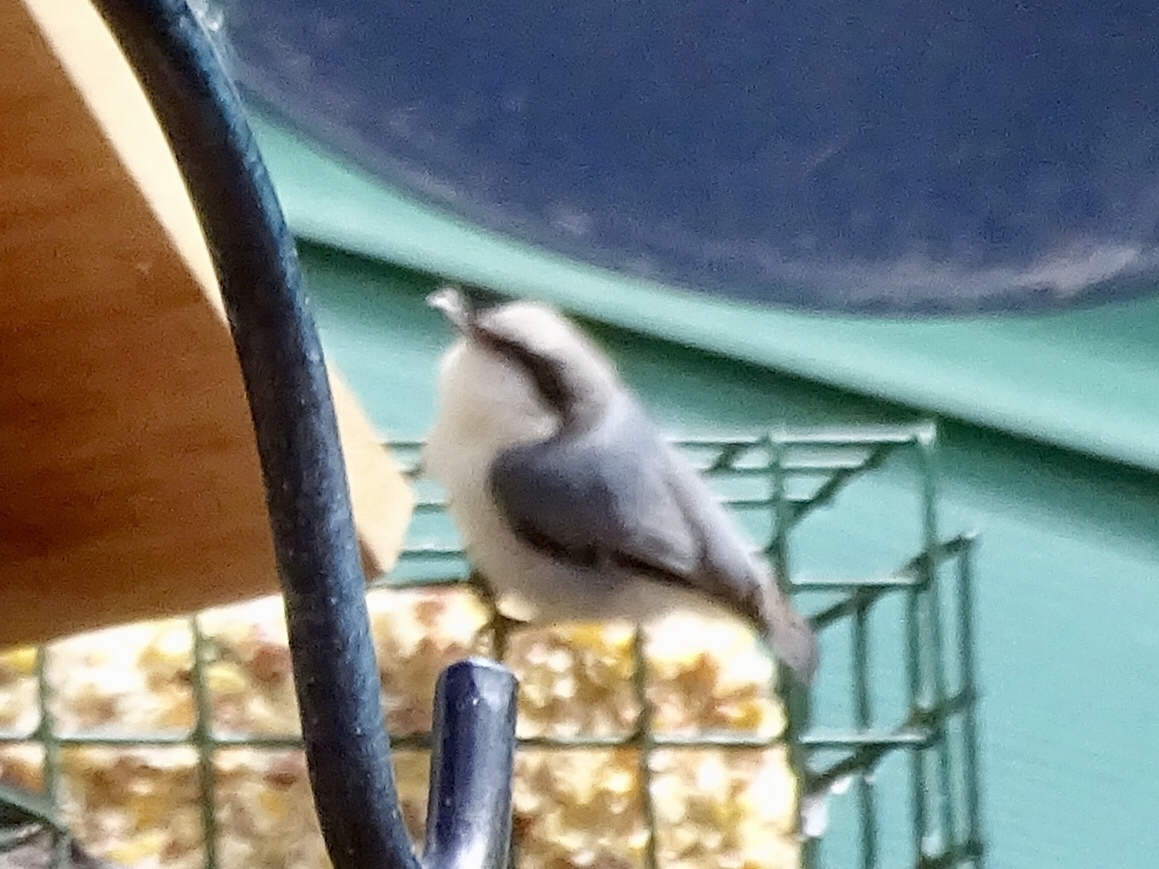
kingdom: Animalia
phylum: Chordata
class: Aves
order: Passeriformes
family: Sittidae
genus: Sitta
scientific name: Sitta pygmaea
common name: Pygmy nuthatch
